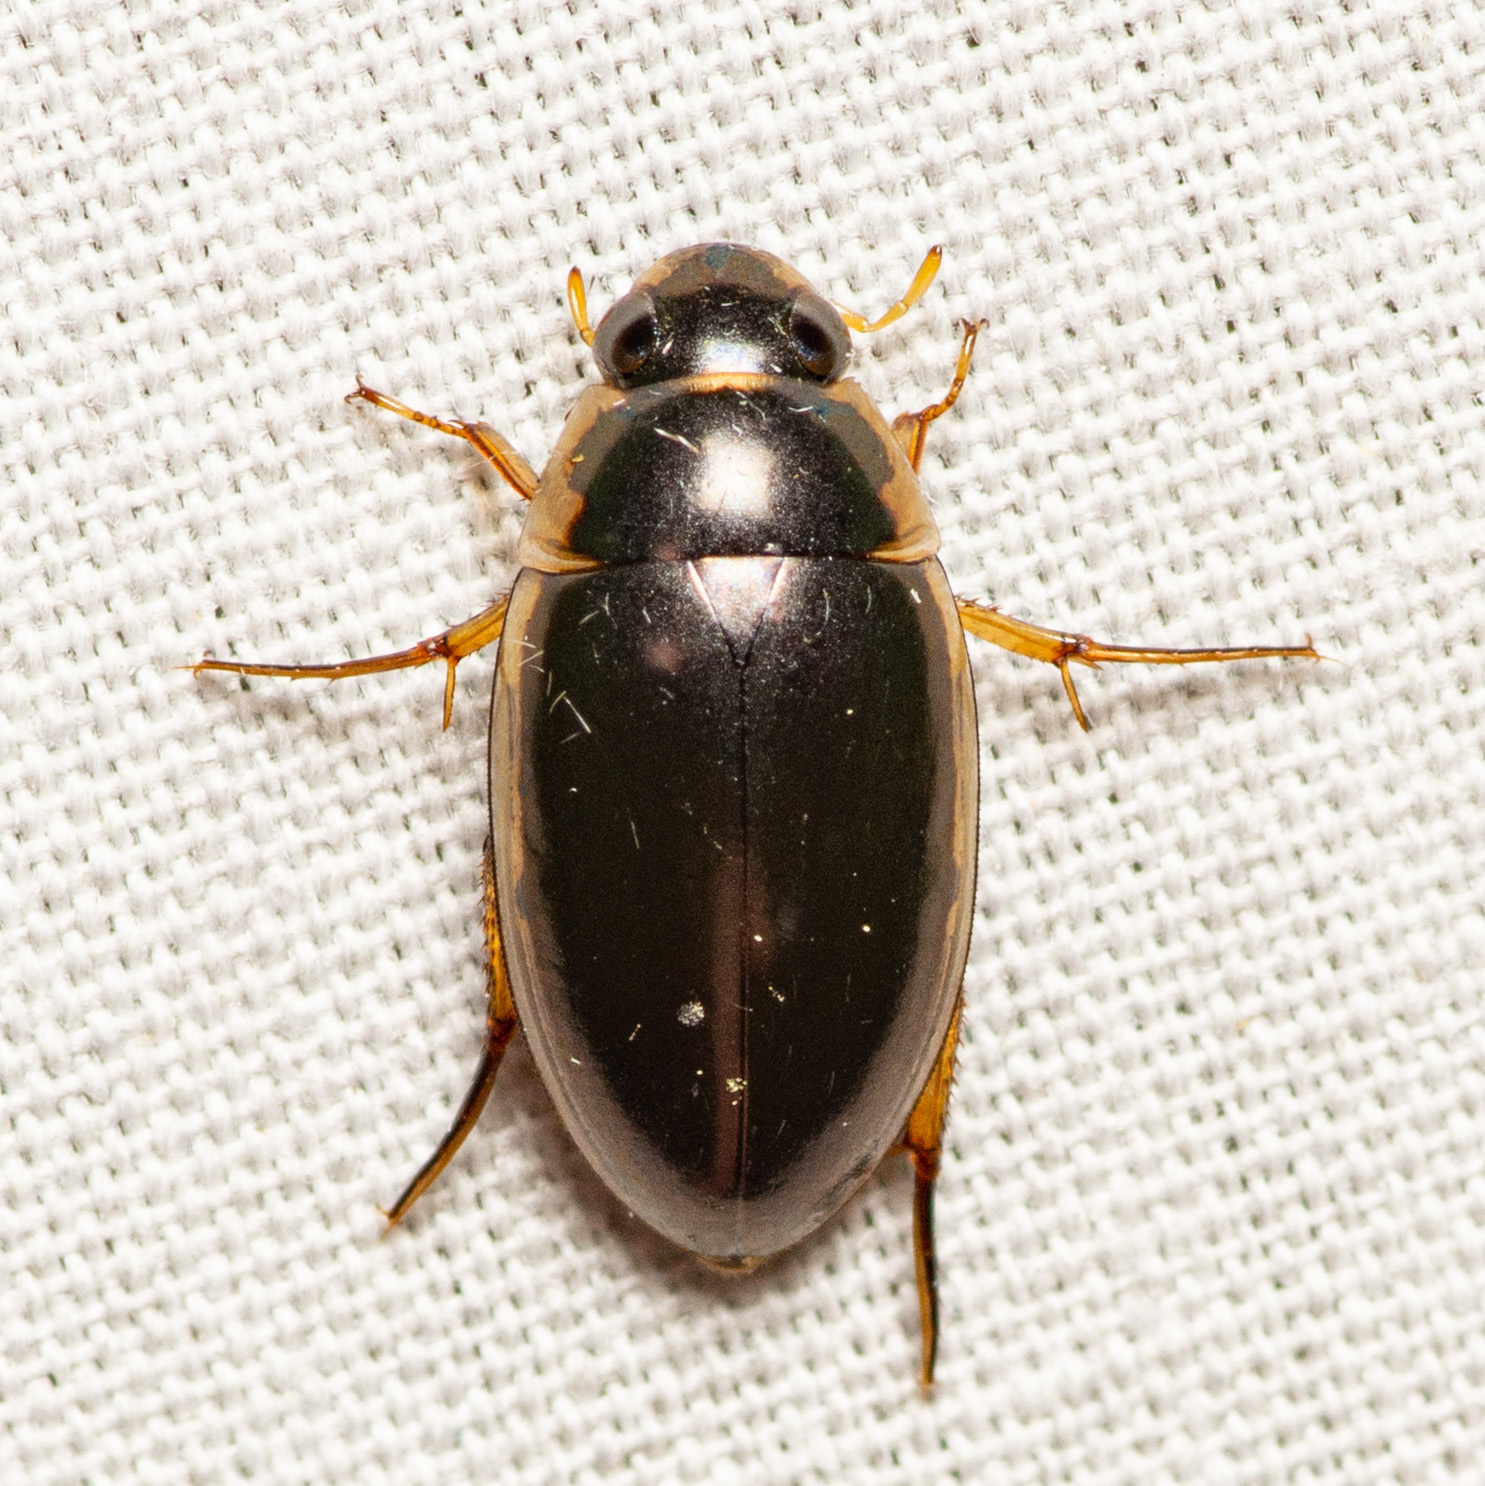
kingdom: Animalia
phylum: Arthropoda
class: Insecta
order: Coleoptera
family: Hydrophilidae
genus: Tropisternus
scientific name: Tropisternus lateralis
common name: Lateral-banded water scavenger beetle
